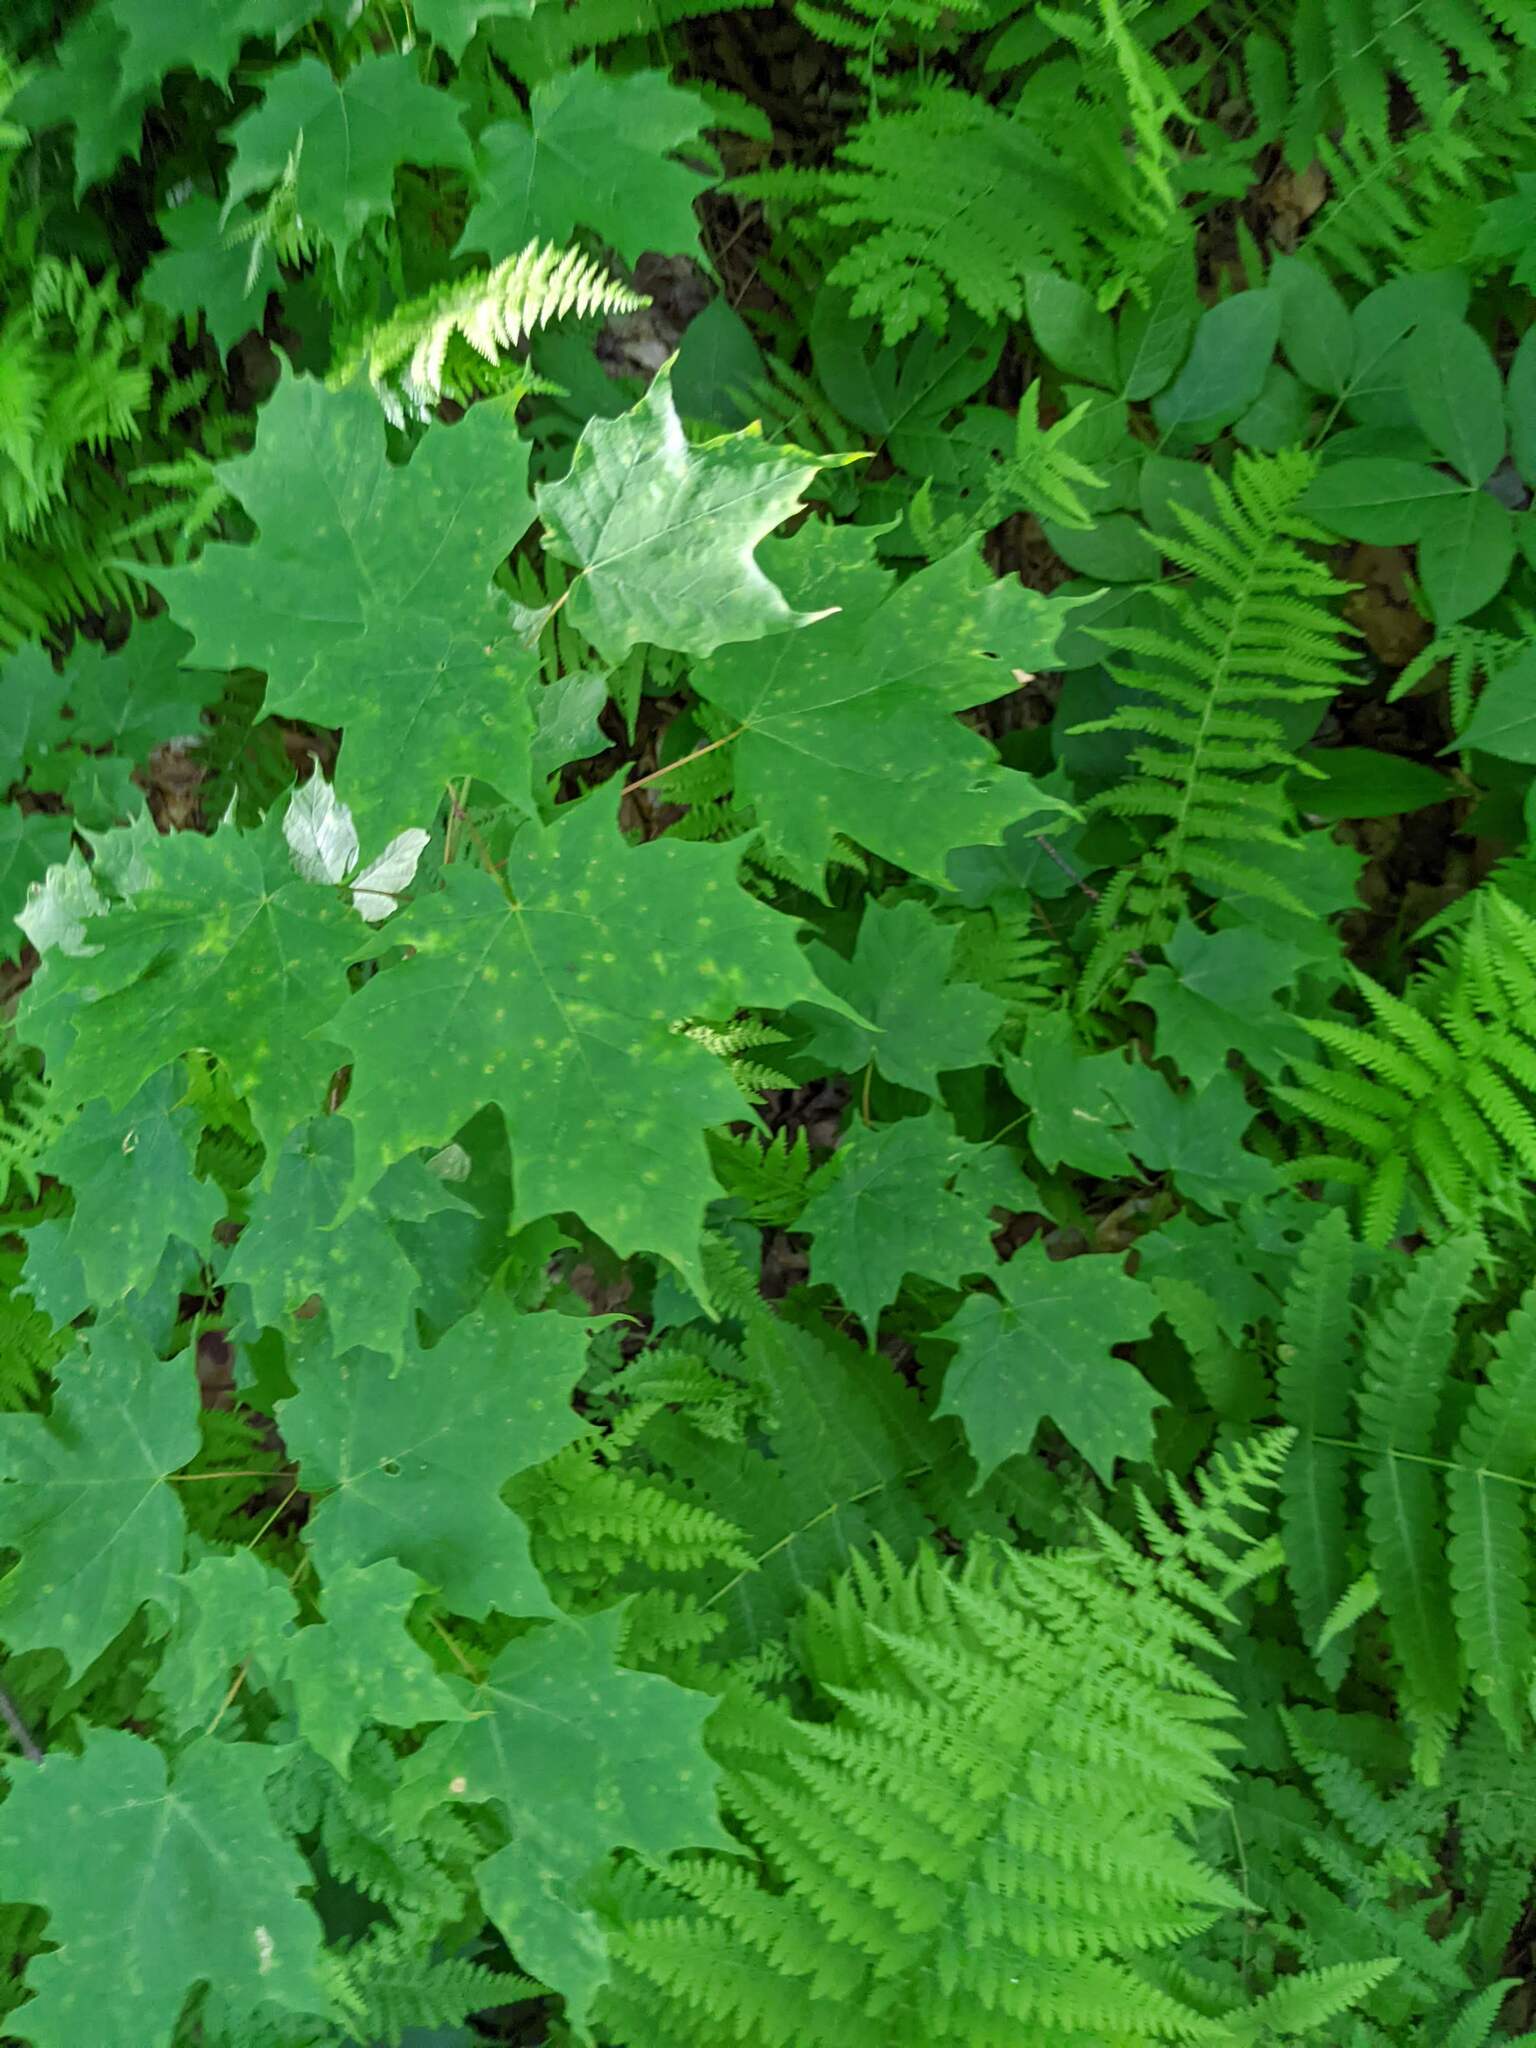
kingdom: Plantae
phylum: Tracheophyta
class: Magnoliopsida
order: Sapindales
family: Sapindaceae
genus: Acer
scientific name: Acer saccharum
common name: Sugar maple
